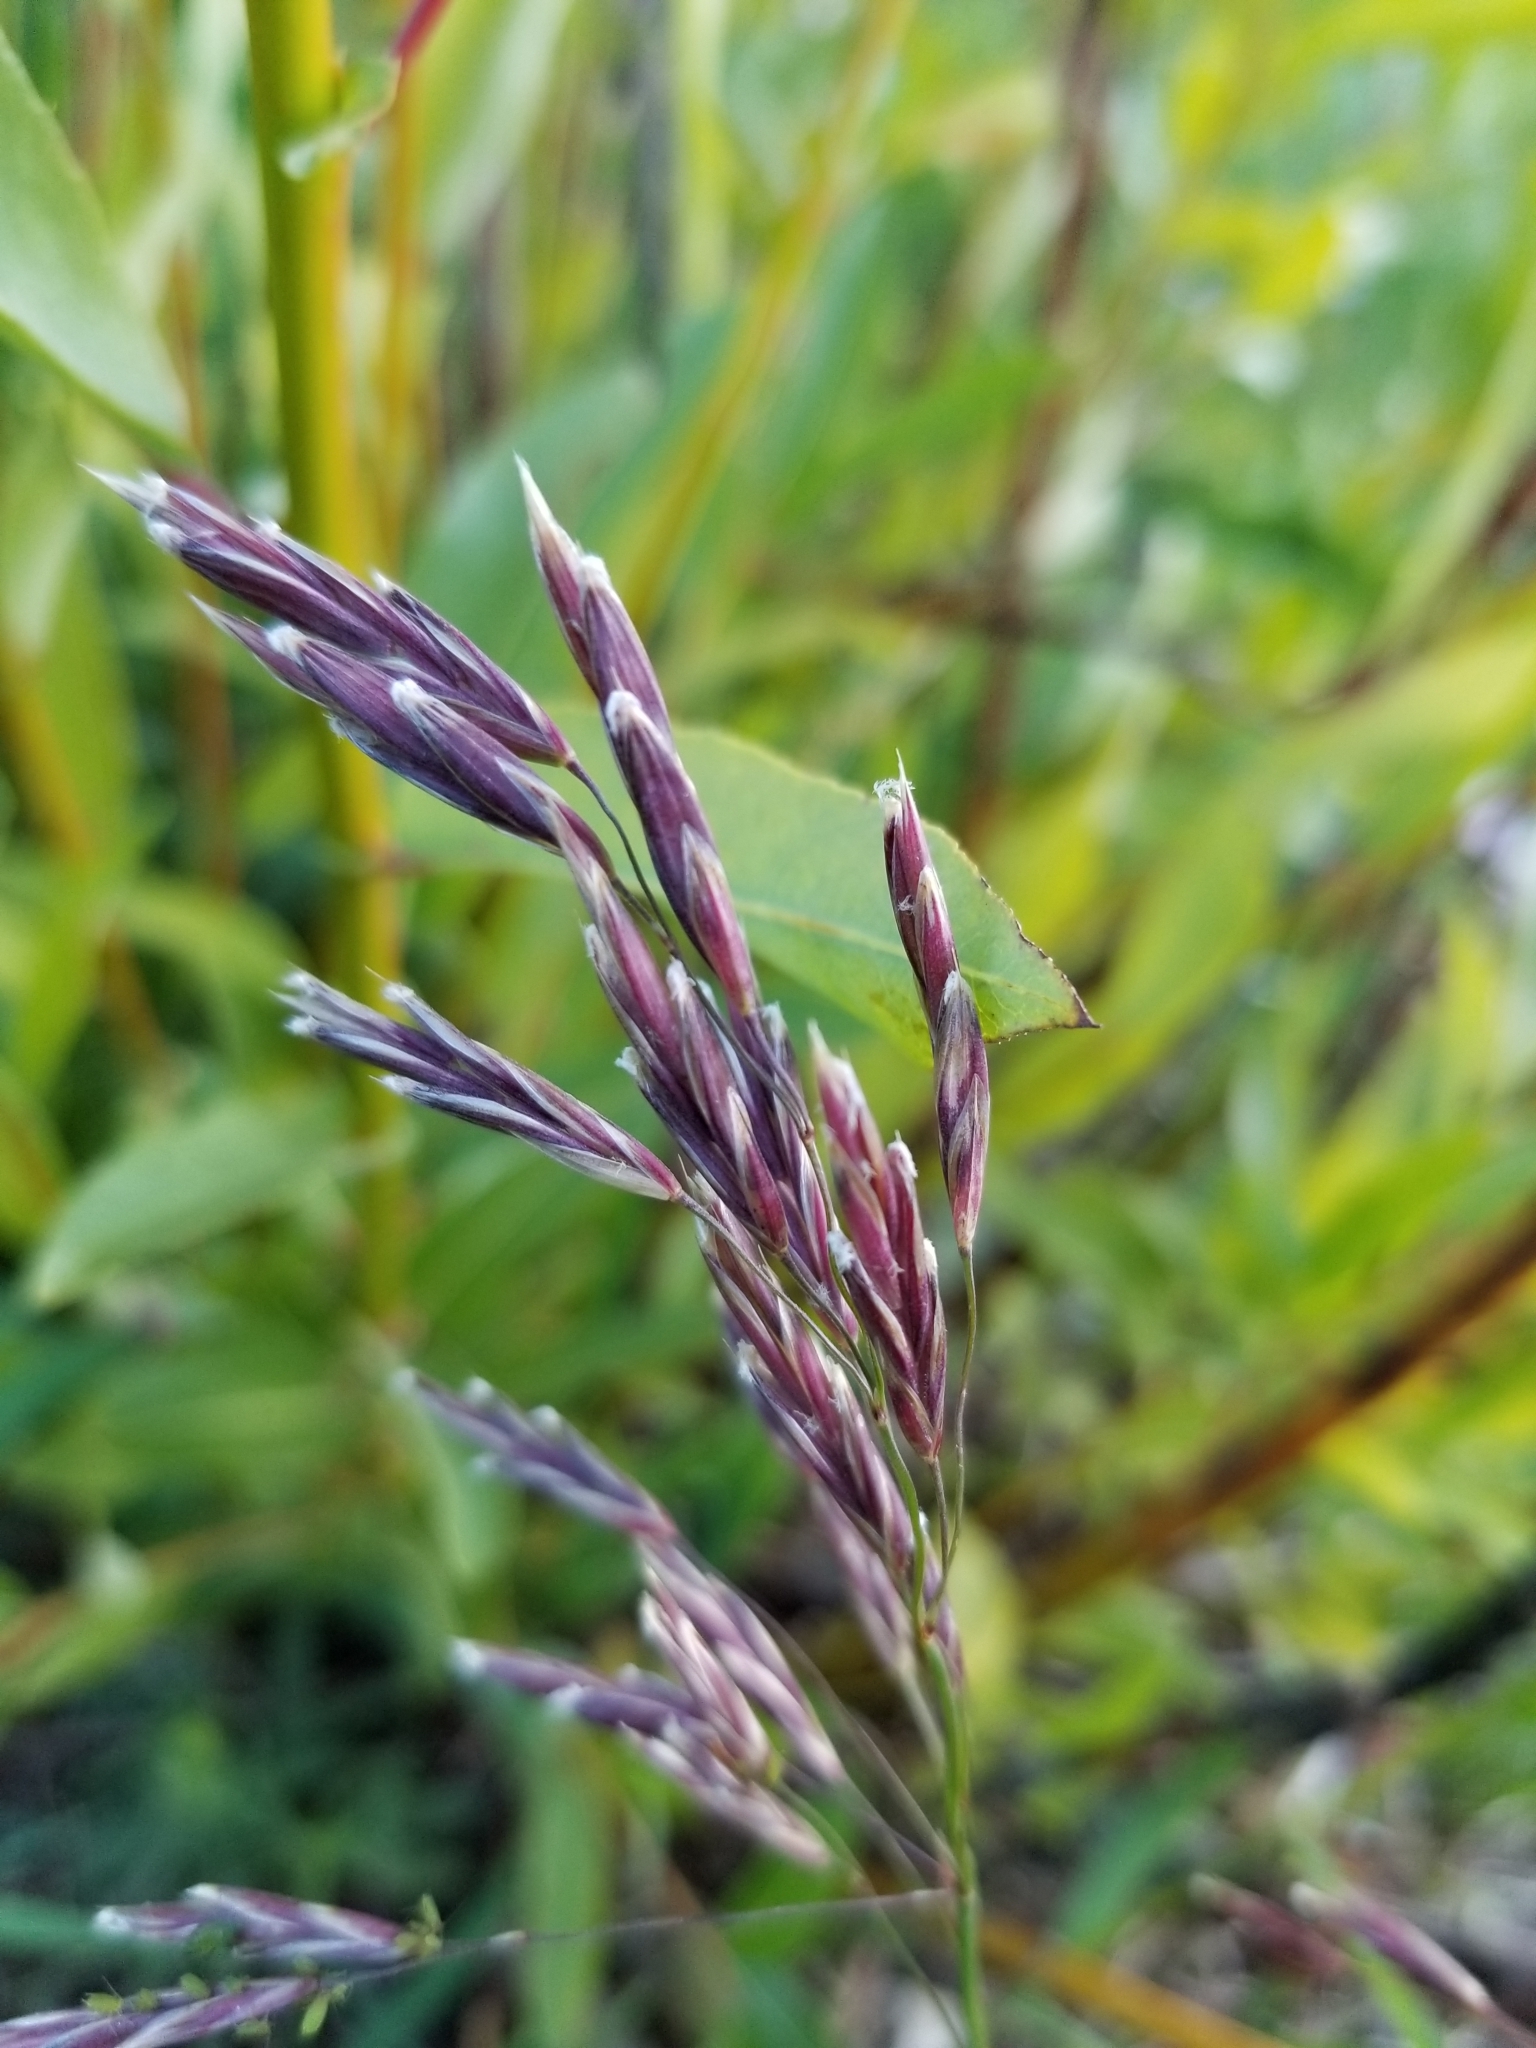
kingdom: Plantae
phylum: Tracheophyta
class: Liliopsida
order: Poales
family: Poaceae
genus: Bromus
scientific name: Bromus inermis
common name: Smooth brome
